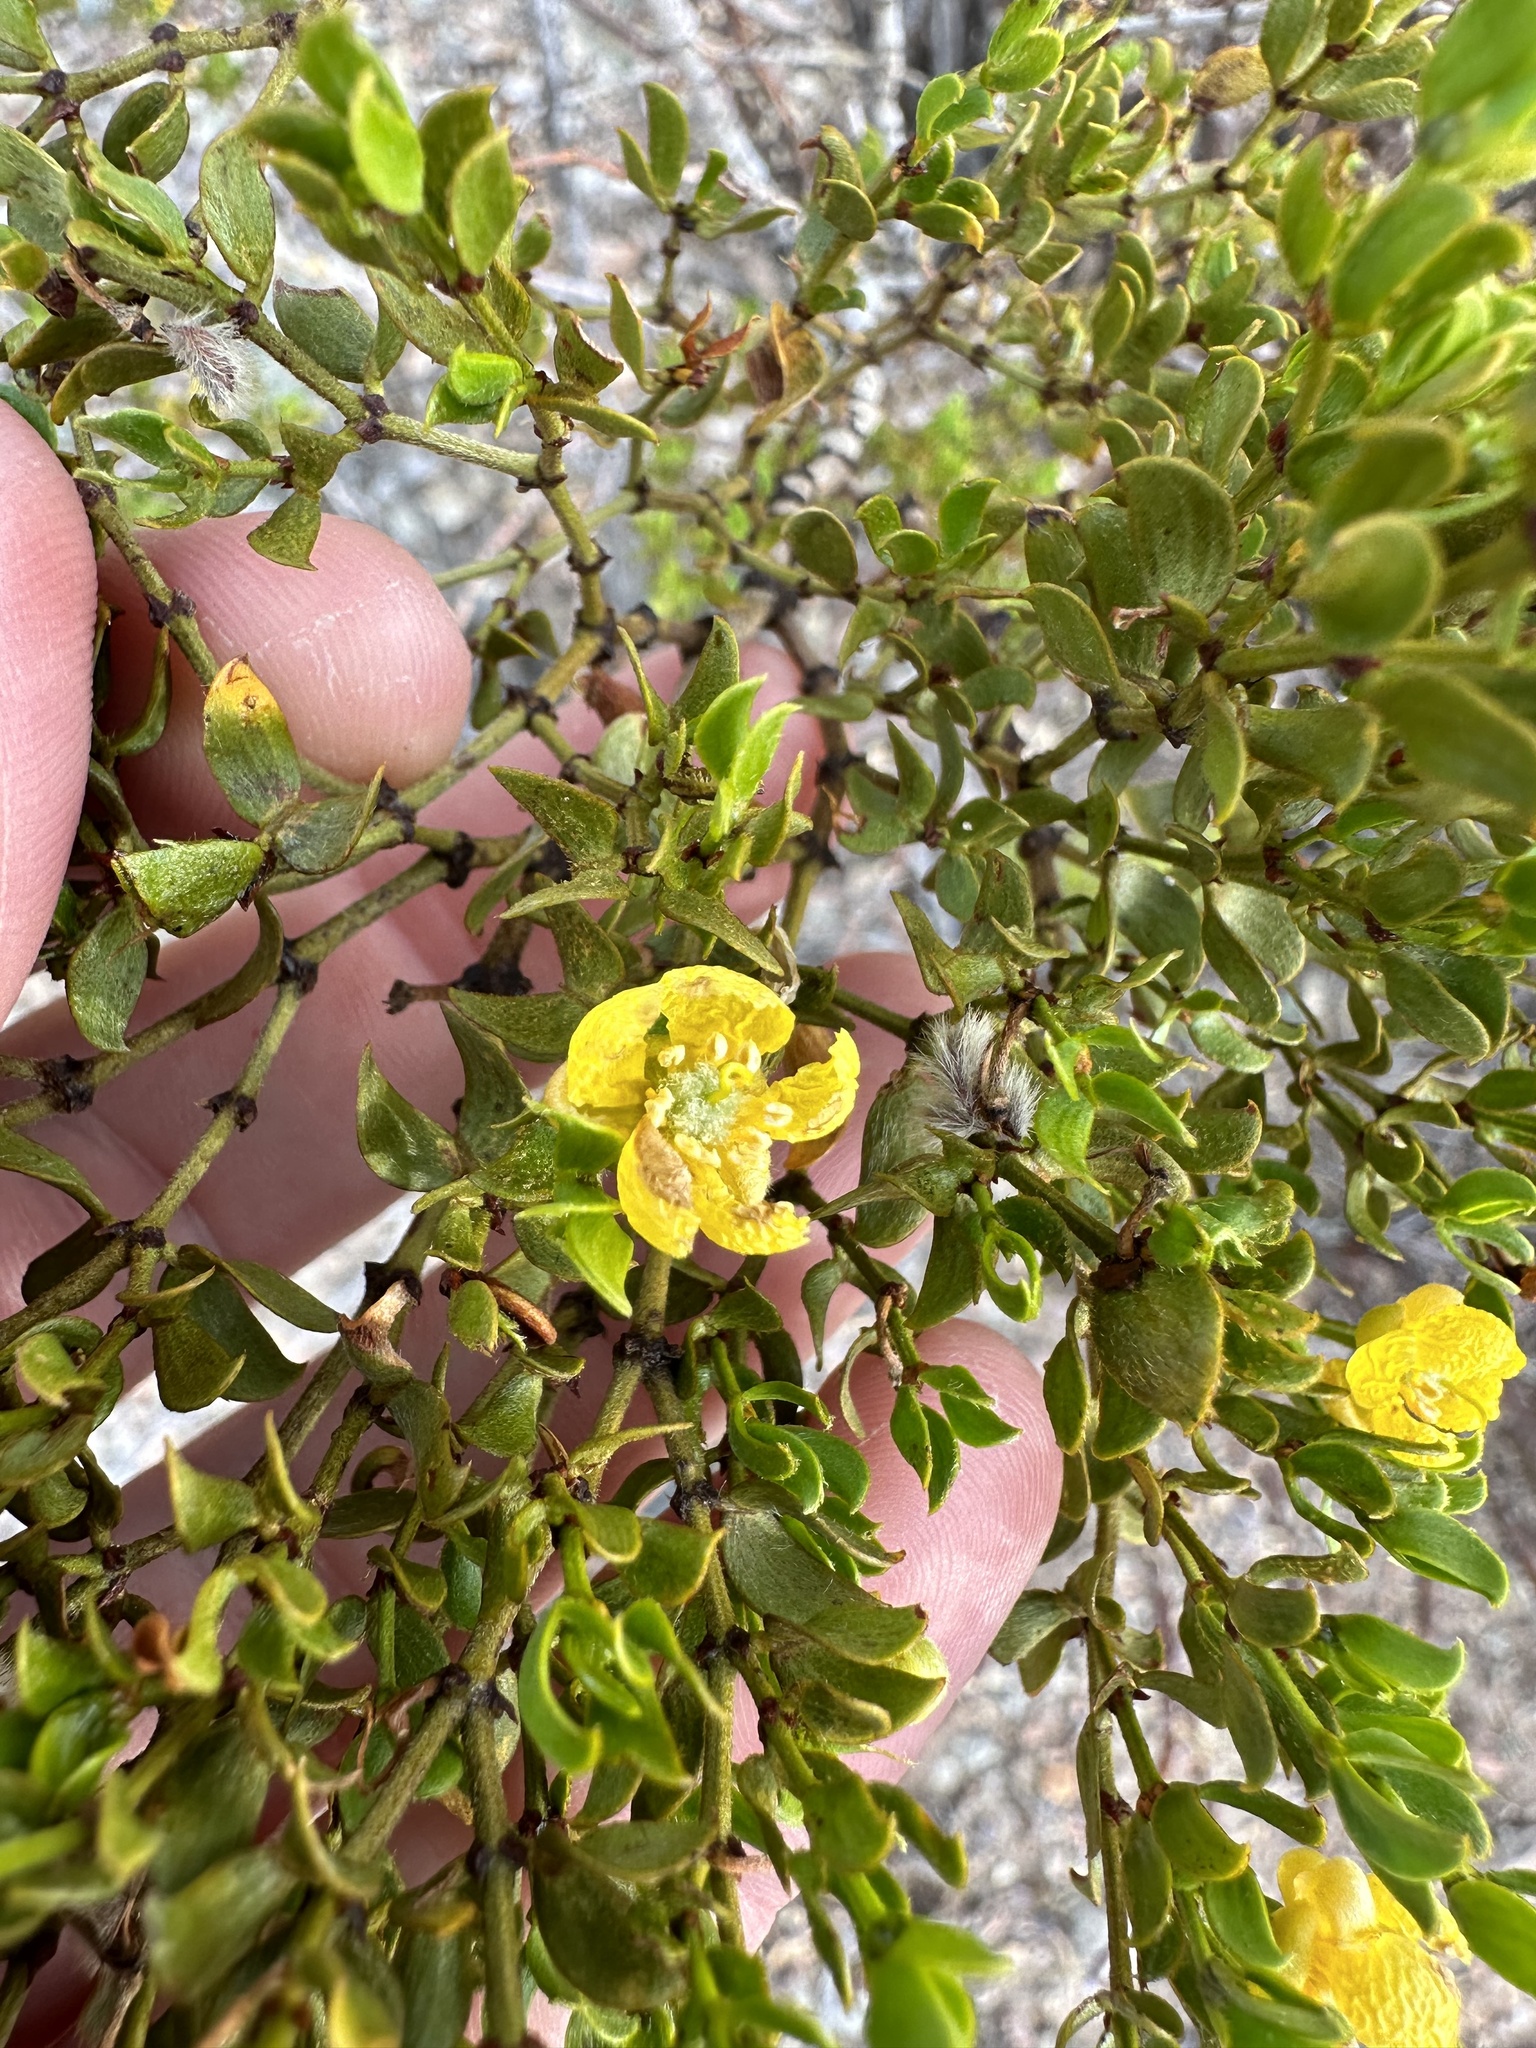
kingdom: Plantae
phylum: Tracheophyta
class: Magnoliopsida
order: Zygophyllales
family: Zygophyllaceae
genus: Larrea
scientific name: Larrea tridentata
